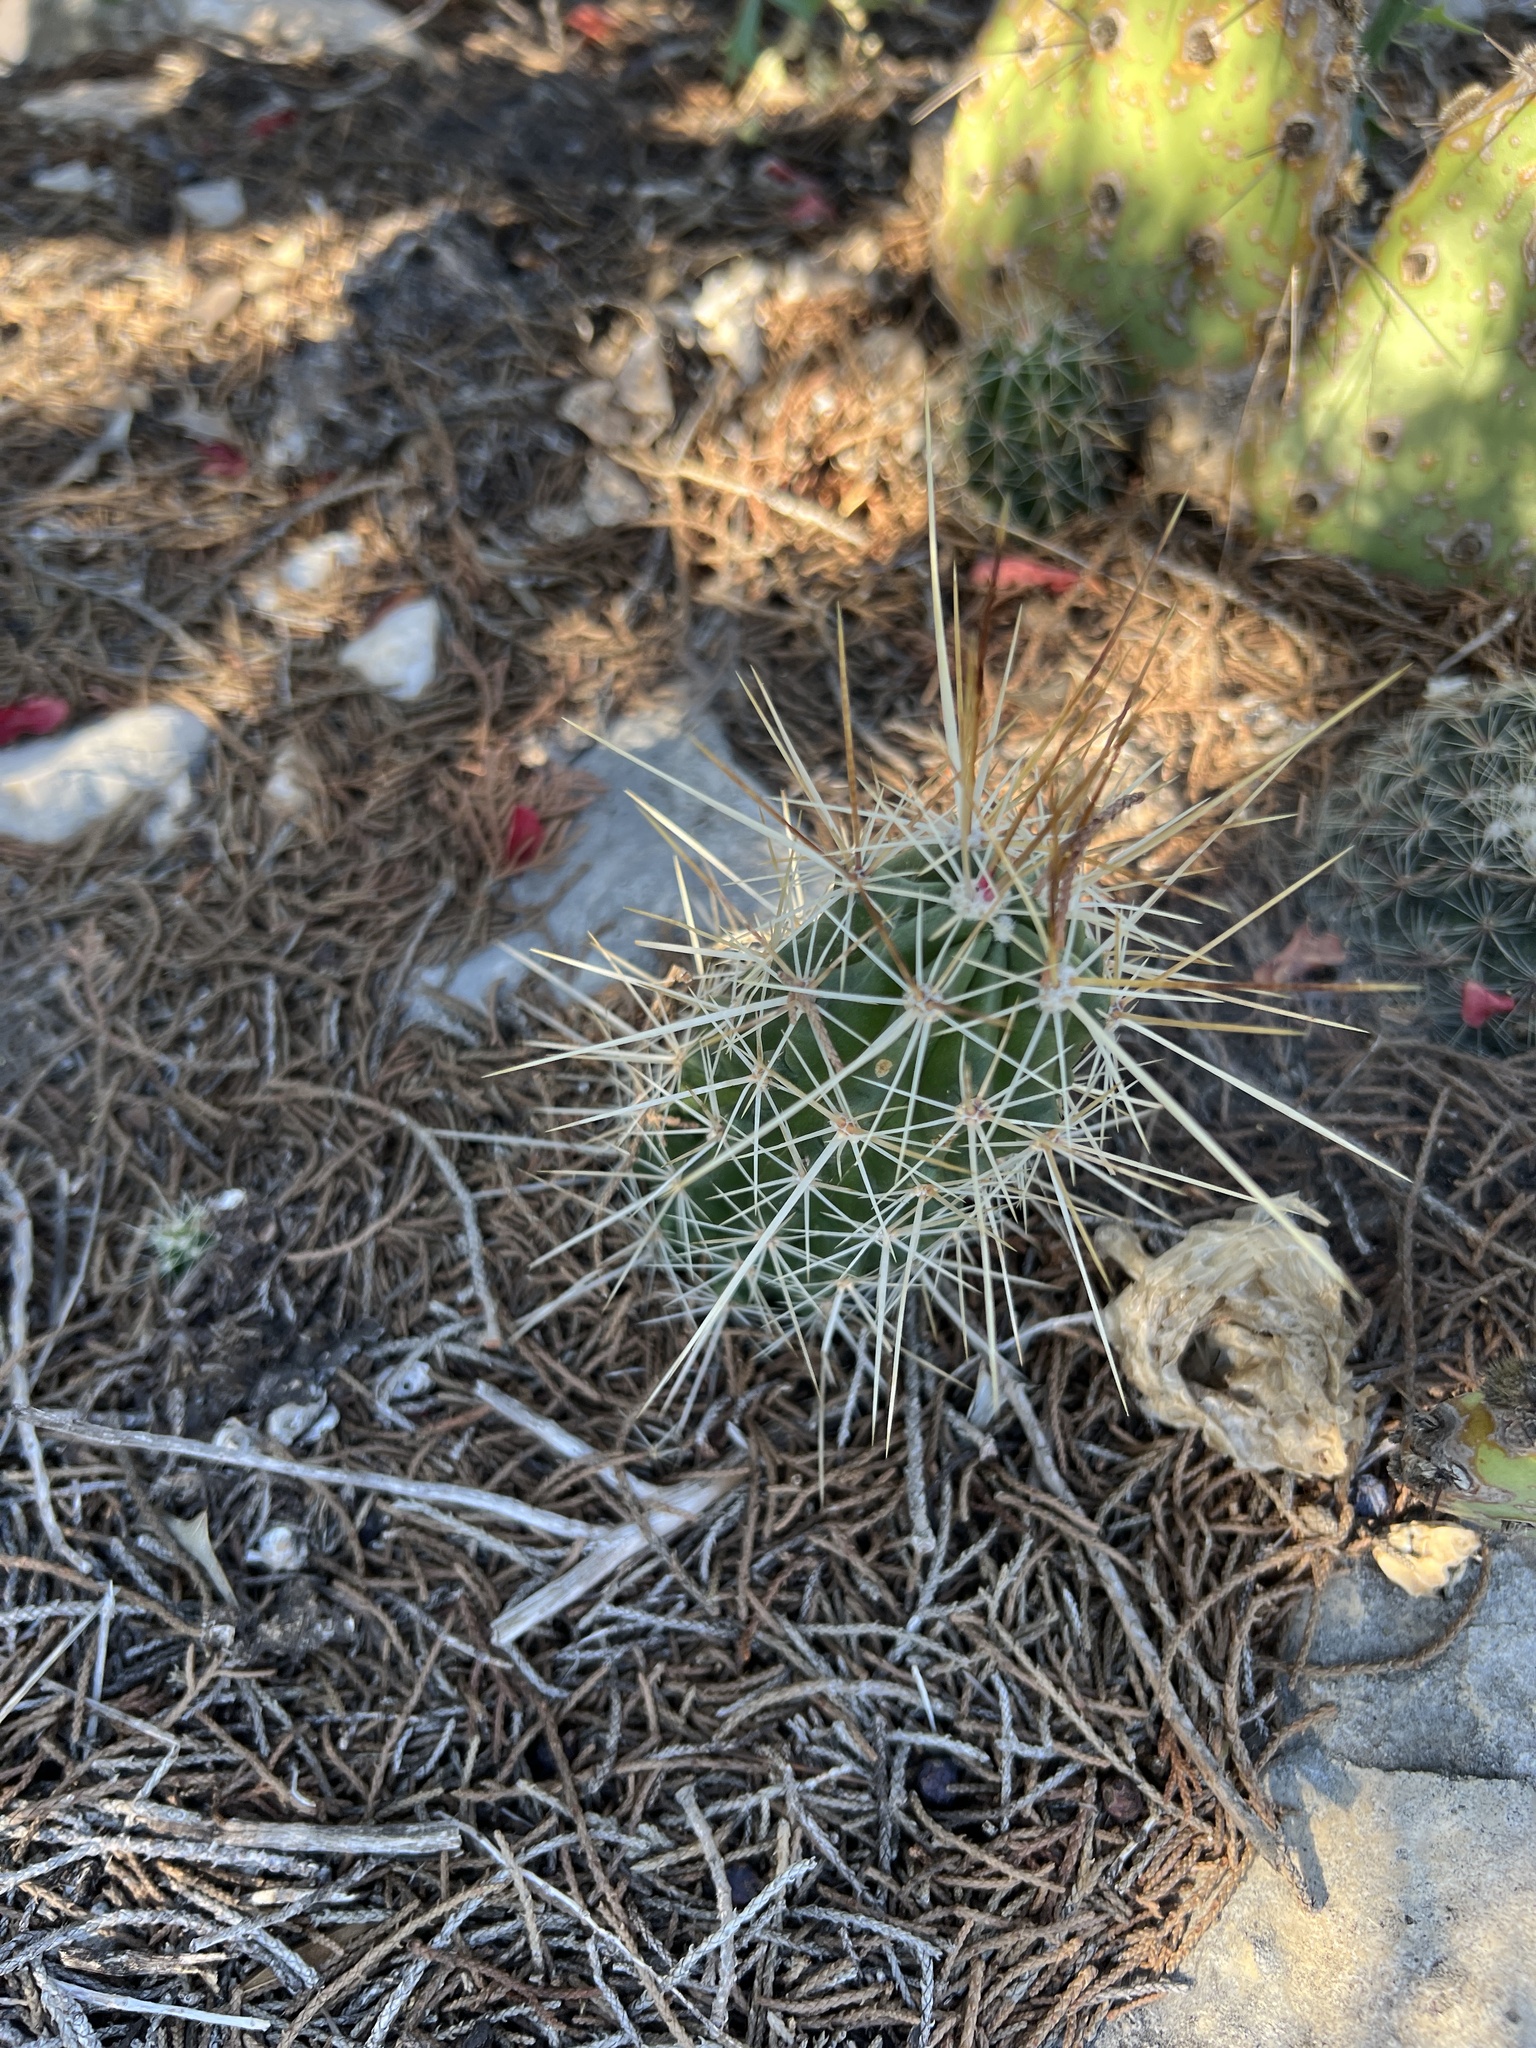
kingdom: Plantae
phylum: Tracheophyta
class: Magnoliopsida
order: Caryophyllales
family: Cactaceae
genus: Echinocereus
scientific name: Echinocereus enneacanthus
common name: Pitaya
